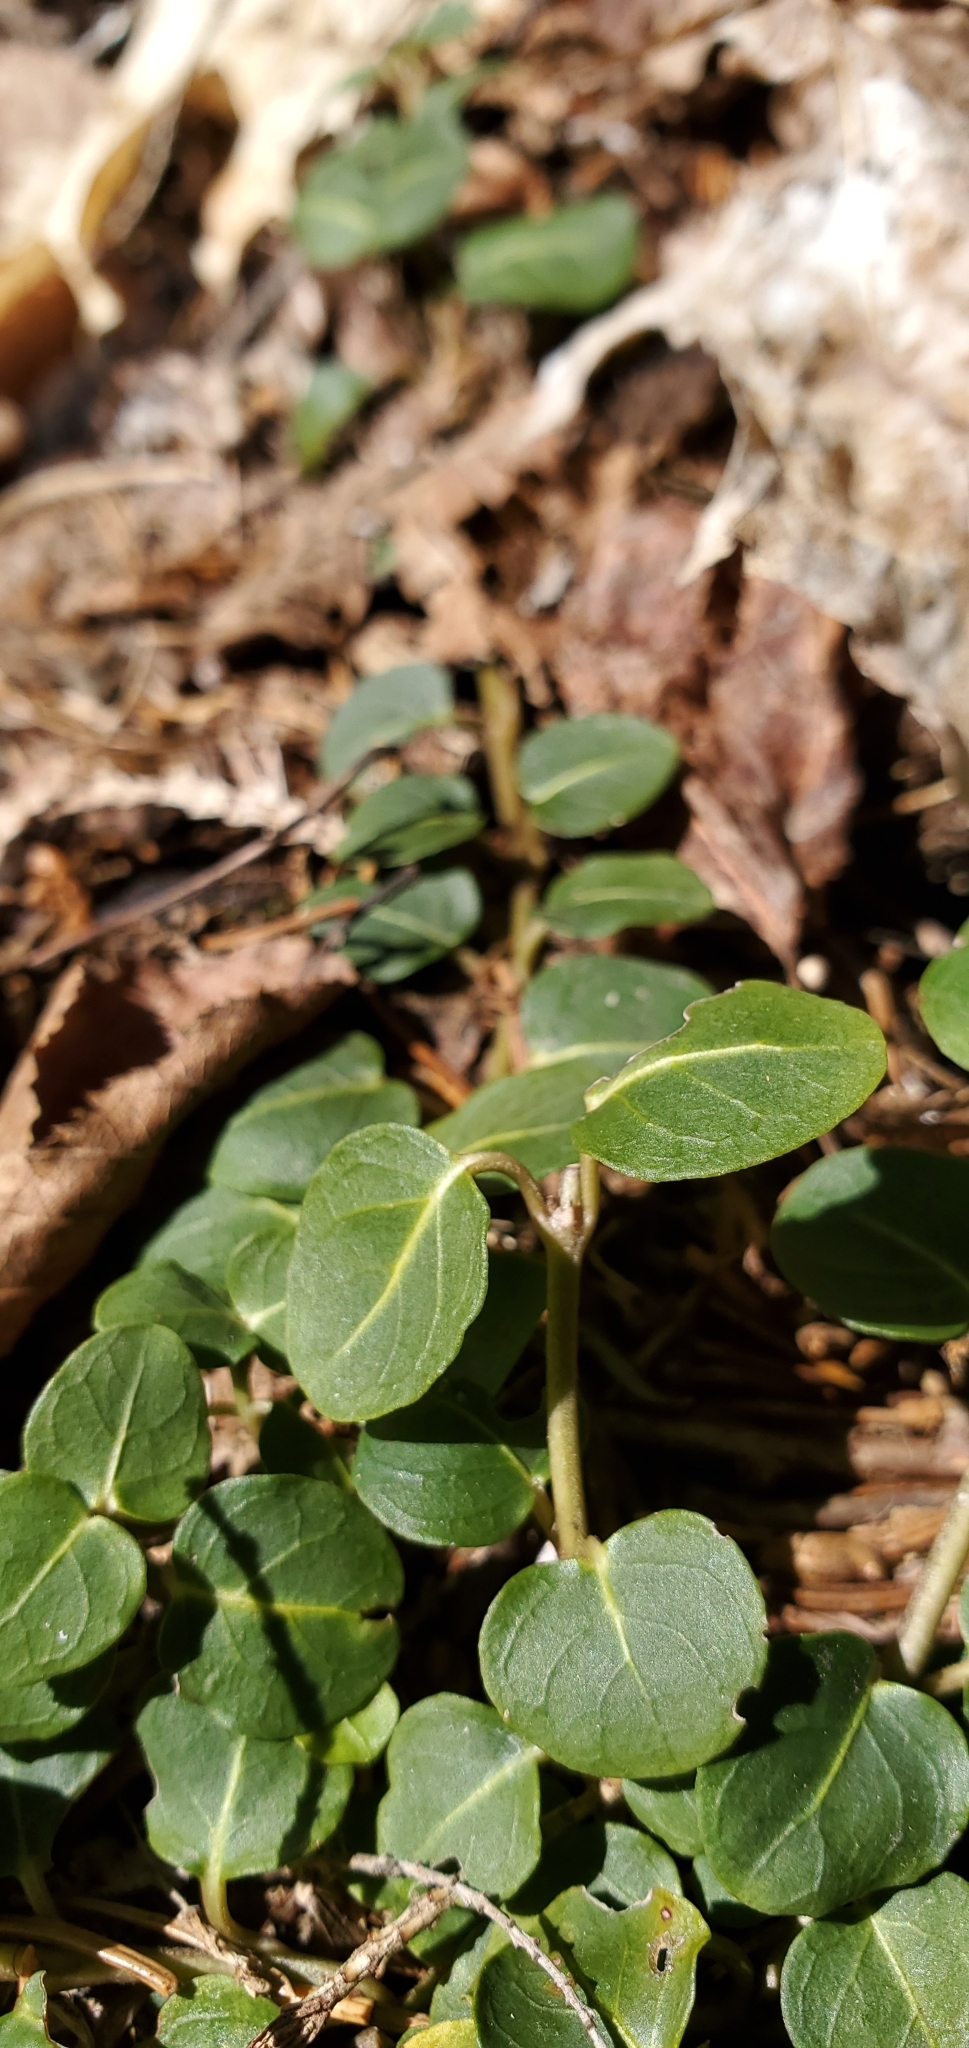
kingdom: Plantae
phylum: Tracheophyta
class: Magnoliopsida
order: Gentianales
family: Rubiaceae
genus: Mitchella
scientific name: Mitchella repens
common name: Partridge-berry
